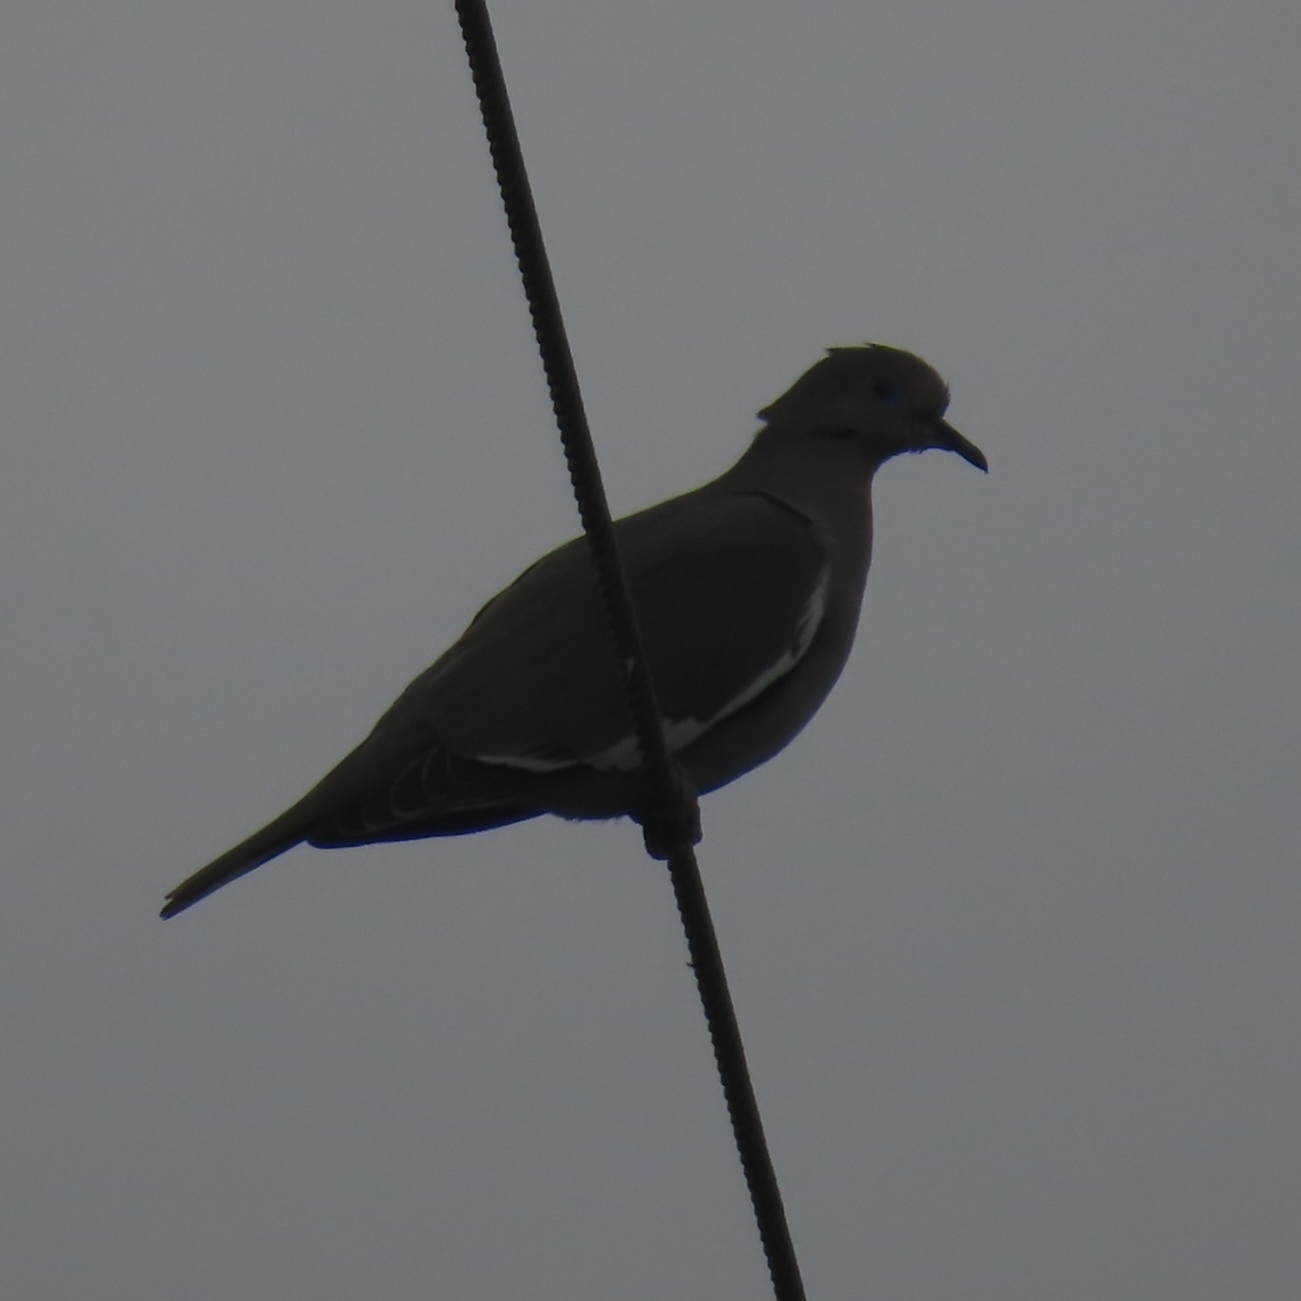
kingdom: Animalia
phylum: Chordata
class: Aves
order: Columbiformes
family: Columbidae
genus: Zenaida
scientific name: Zenaida asiatica
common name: White-winged dove
